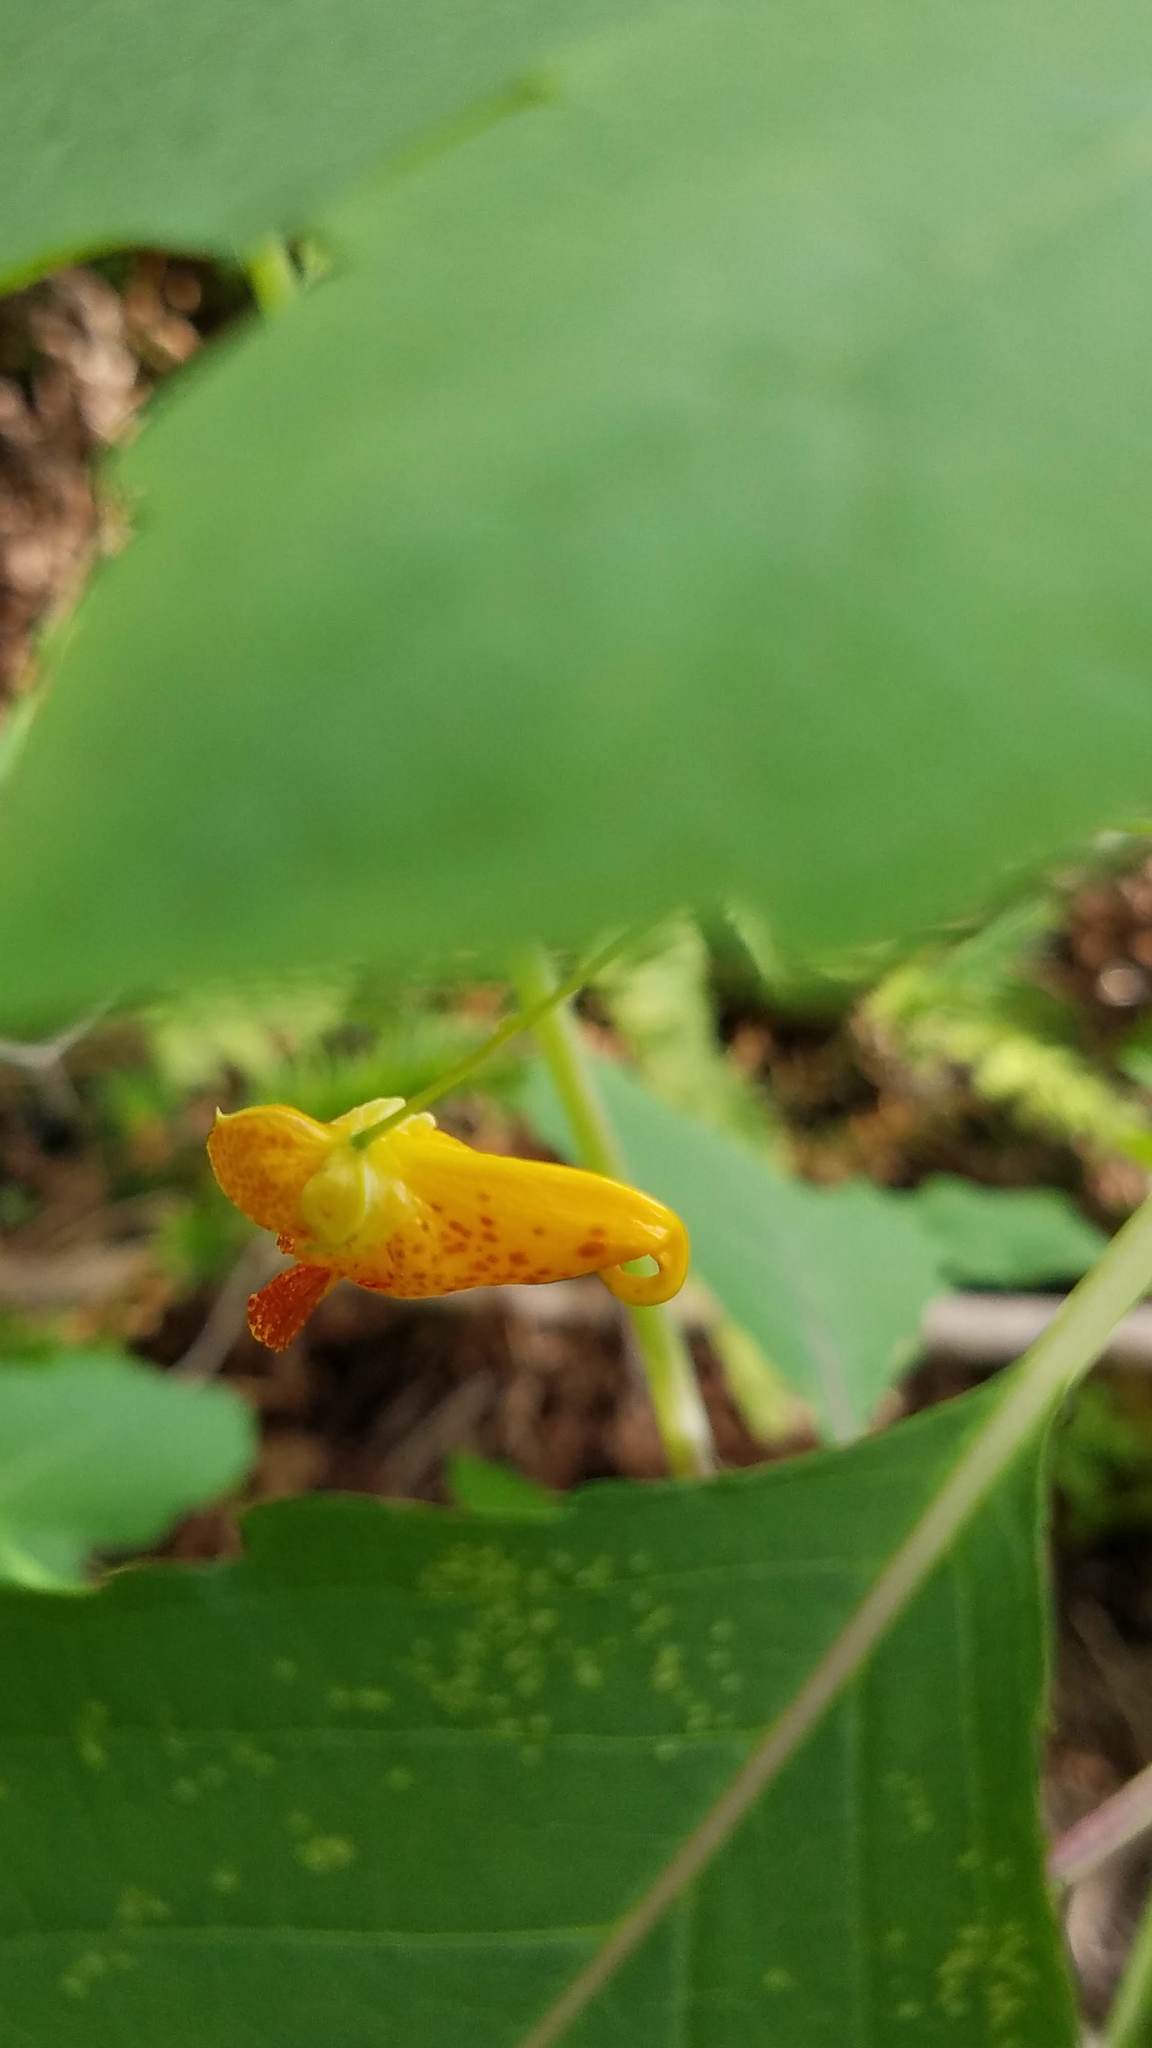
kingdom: Plantae
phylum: Tracheophyta
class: Magnoliopsida
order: Ericales
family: Balsaminaceae
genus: Impatiens
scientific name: Impatiens capensis
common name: Orange balsam
